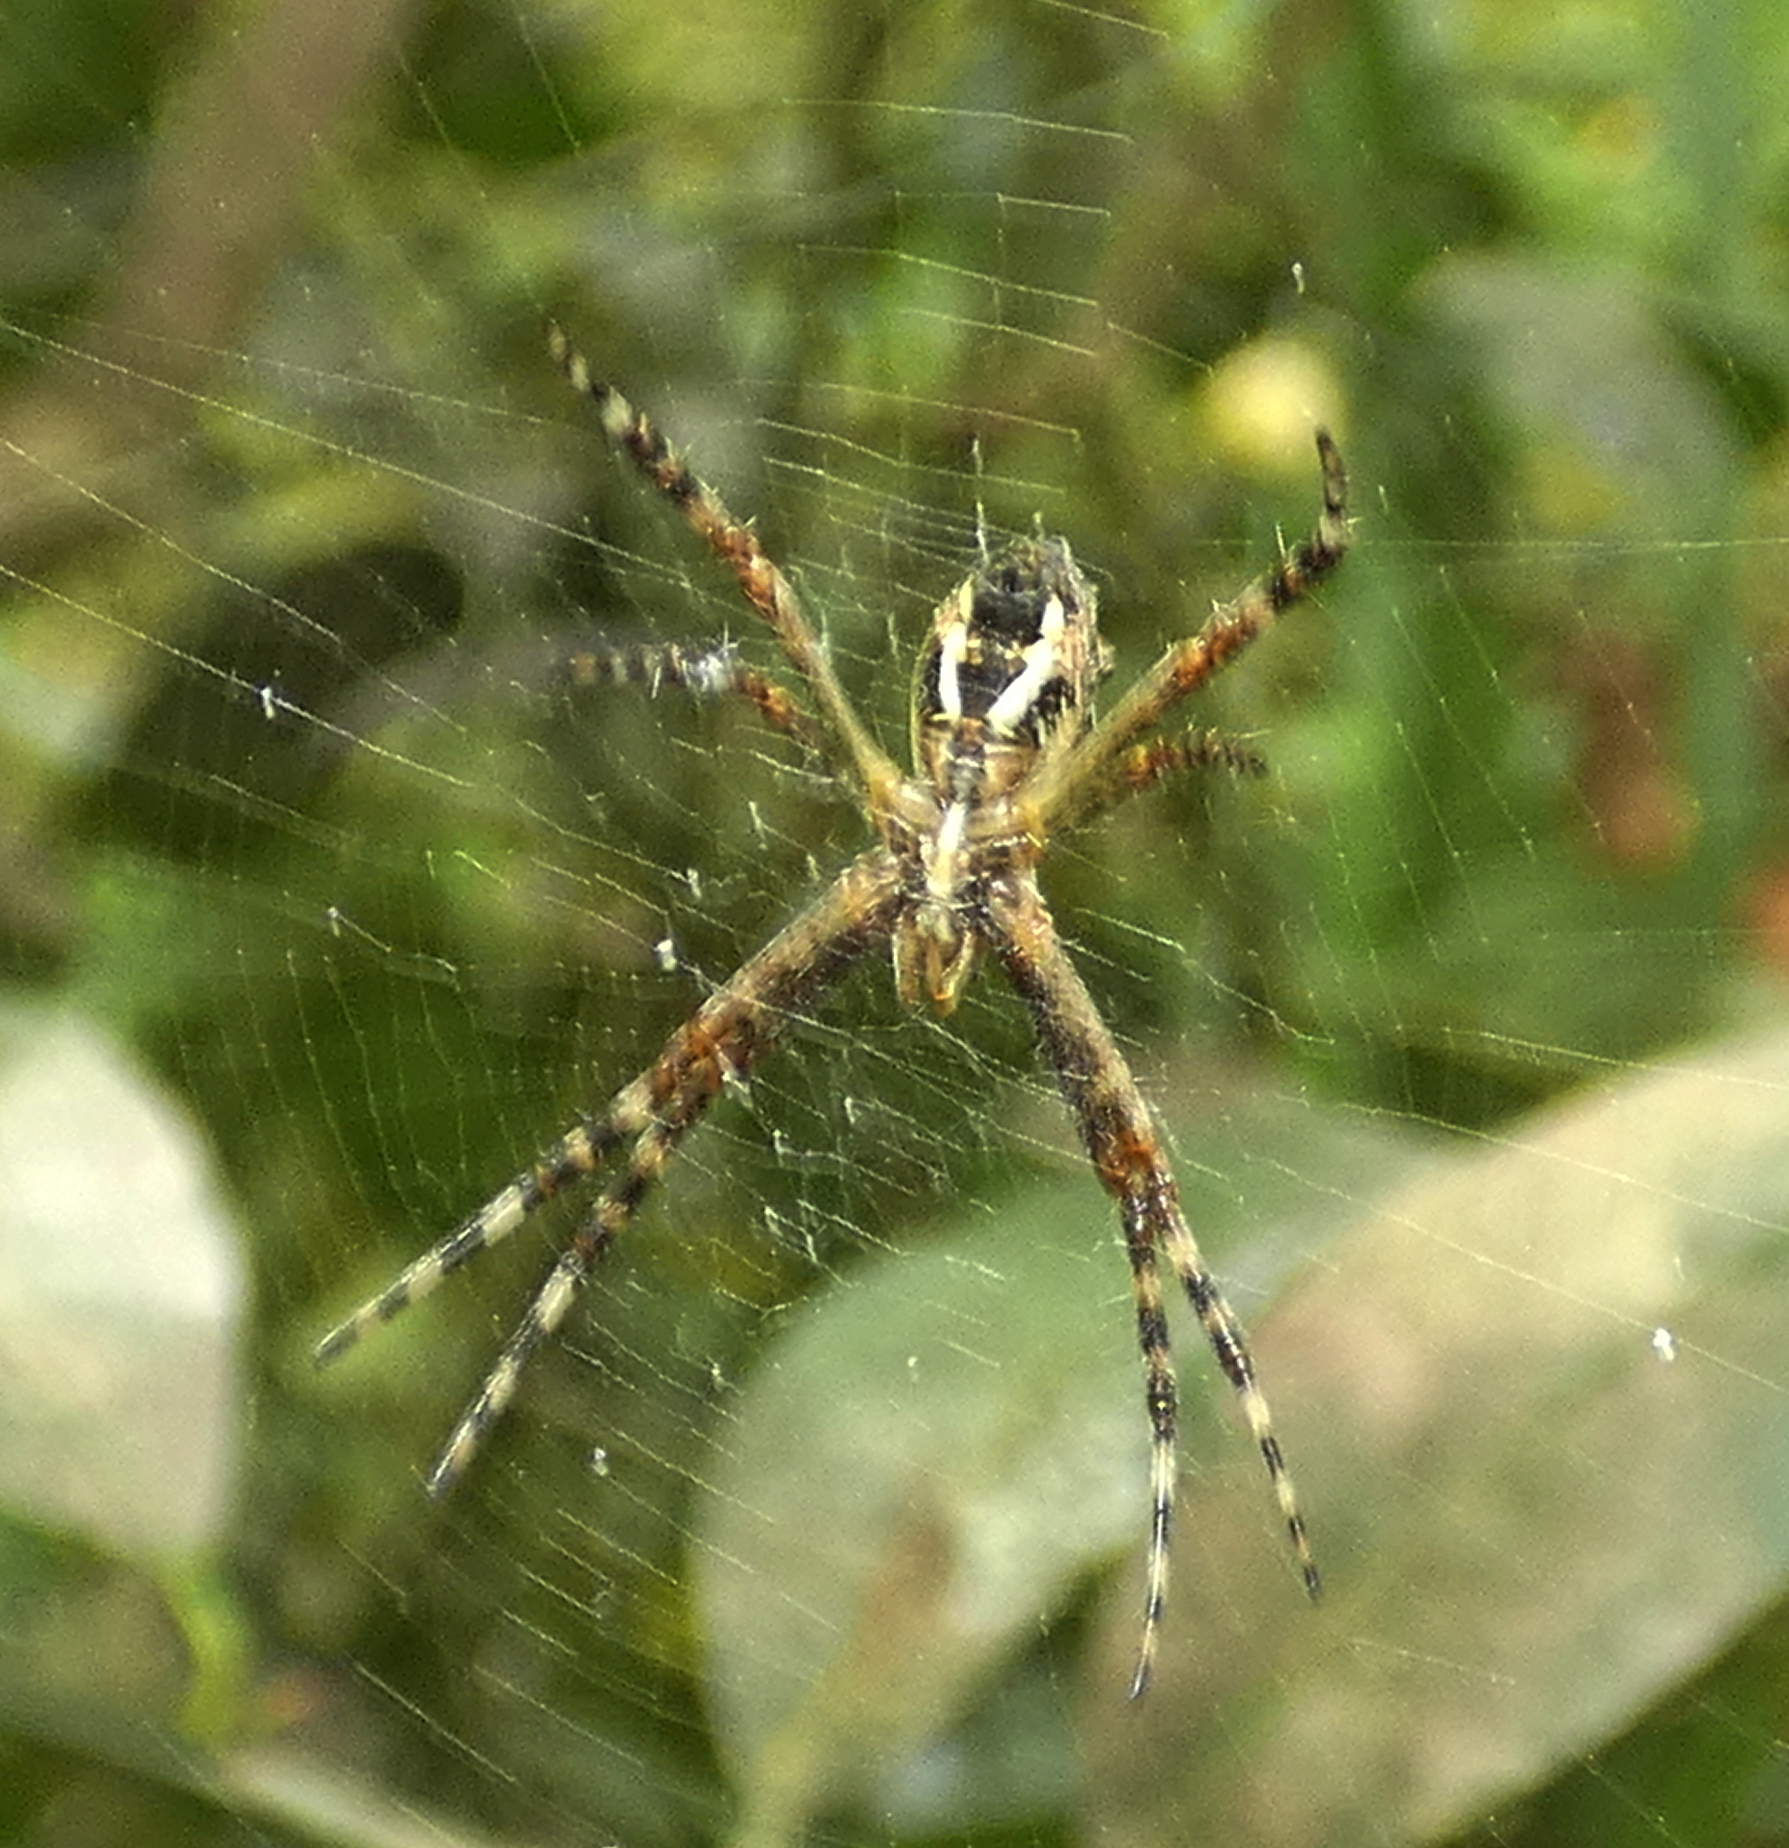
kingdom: Animalia
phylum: Arthropoda
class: Arachnida
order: Araneae
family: Araneidae
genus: Argiope
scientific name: Argiope argentata
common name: Orb weavers
